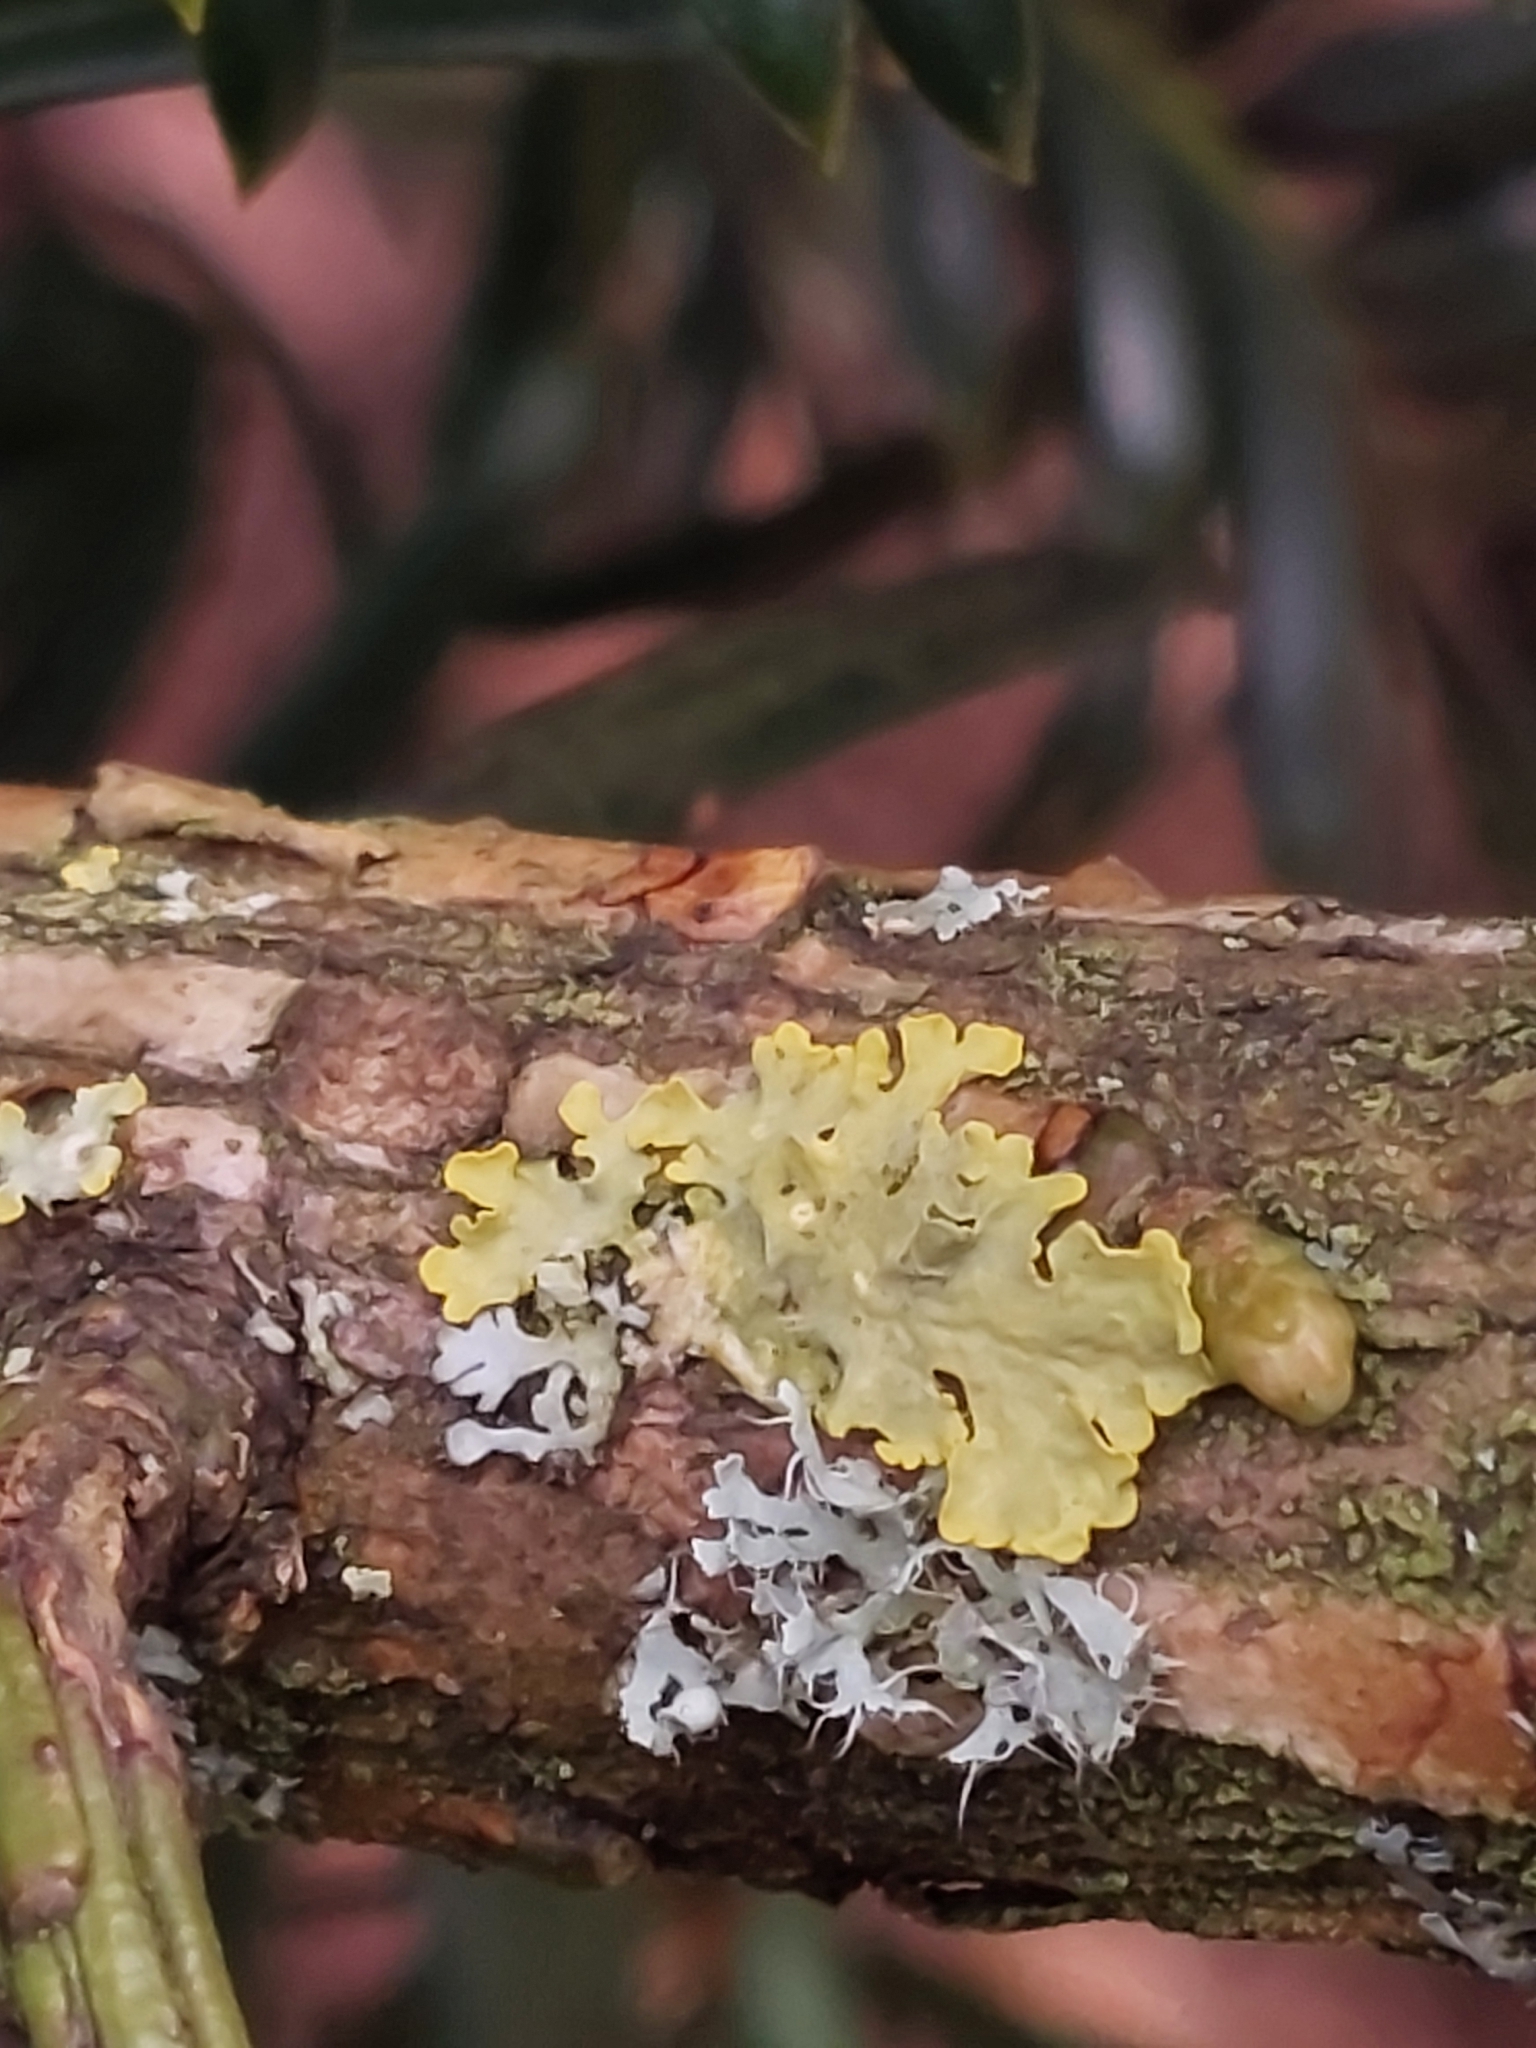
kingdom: Fungi
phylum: Ascomycota
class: Lecanoromycetes
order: Teloschistales
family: Teloschistaceae
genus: Xanthoria
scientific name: Xanthoria parietina
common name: Common orange lichen
